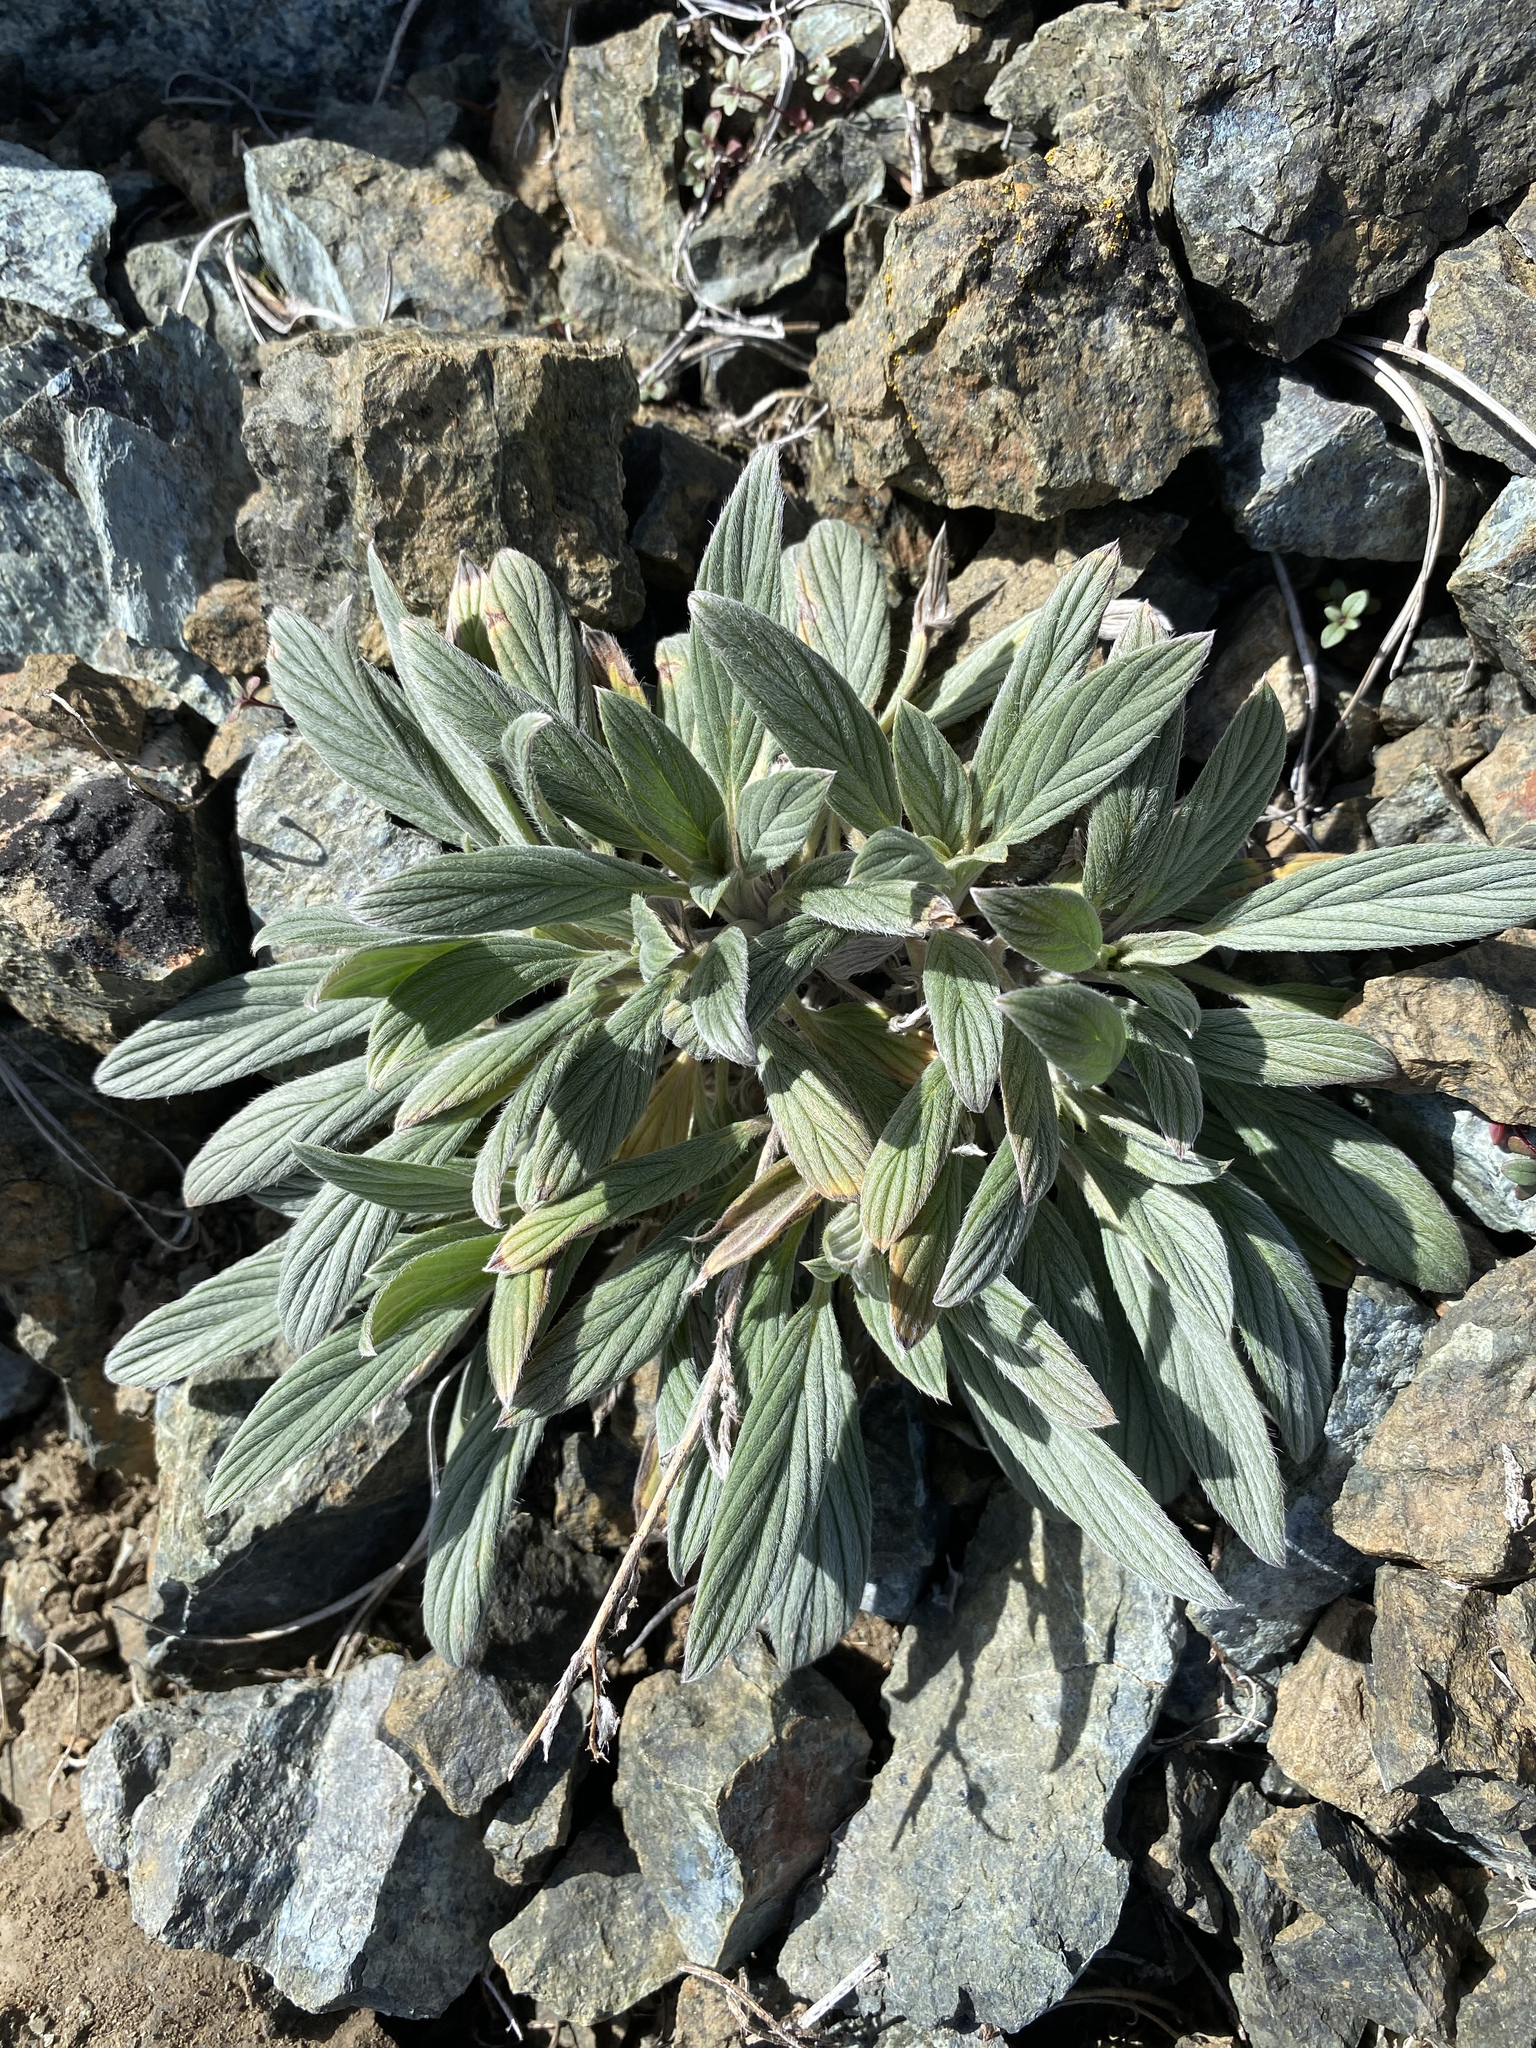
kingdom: Plantae
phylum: Tracheophyta
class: Magnoliopsida
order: Boraginales
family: Hydrophyllaceae
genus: Phacelia
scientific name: Phacelia hastata
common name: Silver-leaved phacelia
